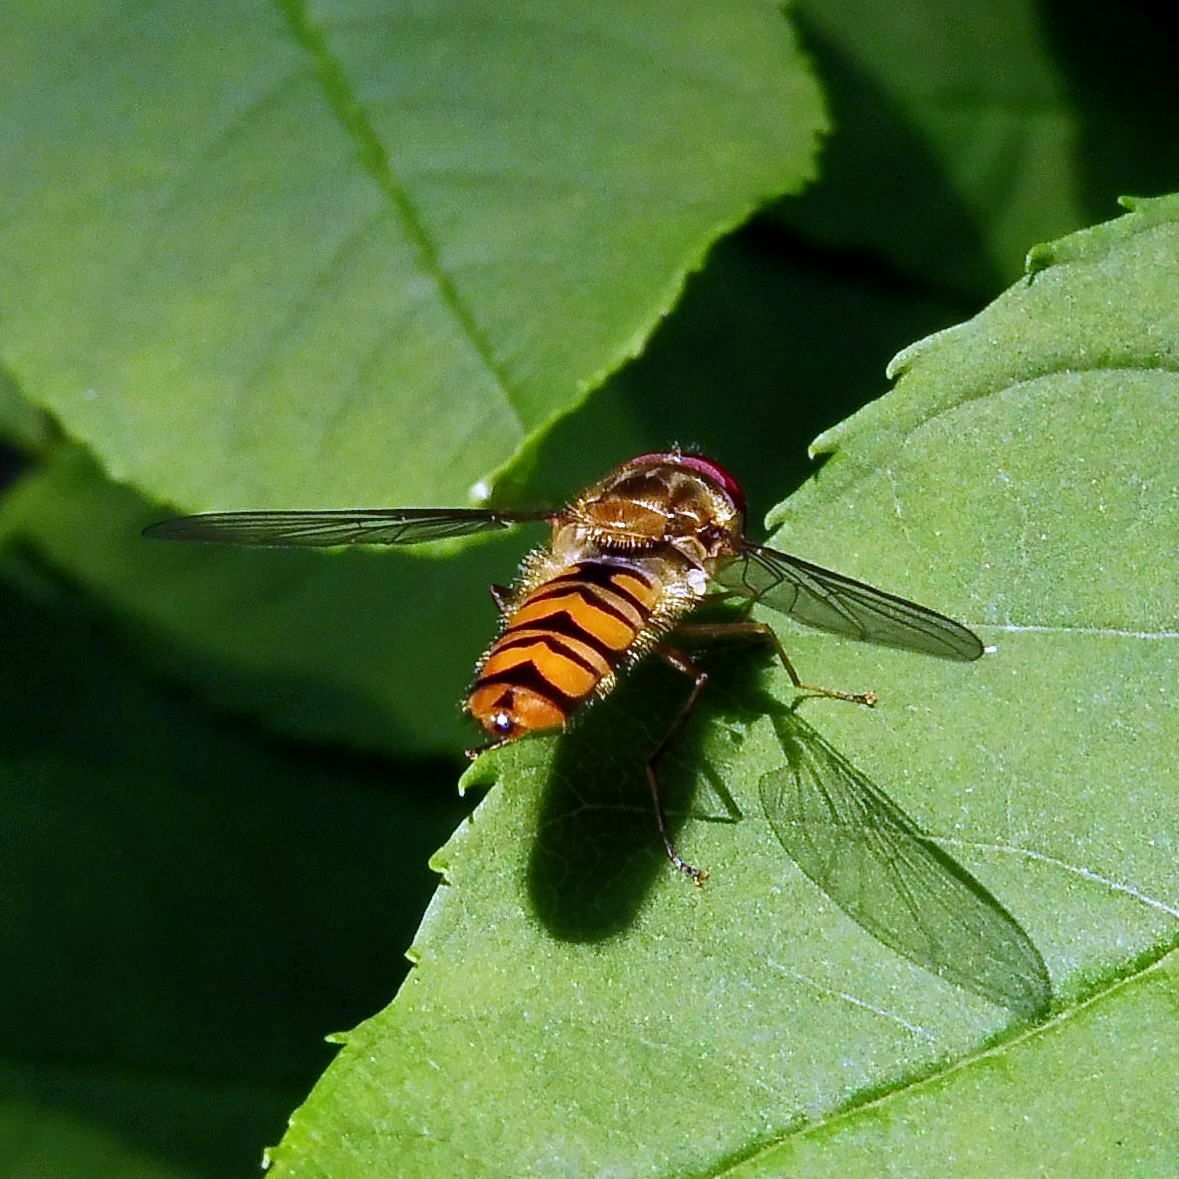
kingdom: Animalia
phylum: Arthropoda
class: Insecta
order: Diptera
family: Syrphidae
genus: Episyrphus
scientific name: Episyrphus balteatus
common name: Marmalade hoverfly
